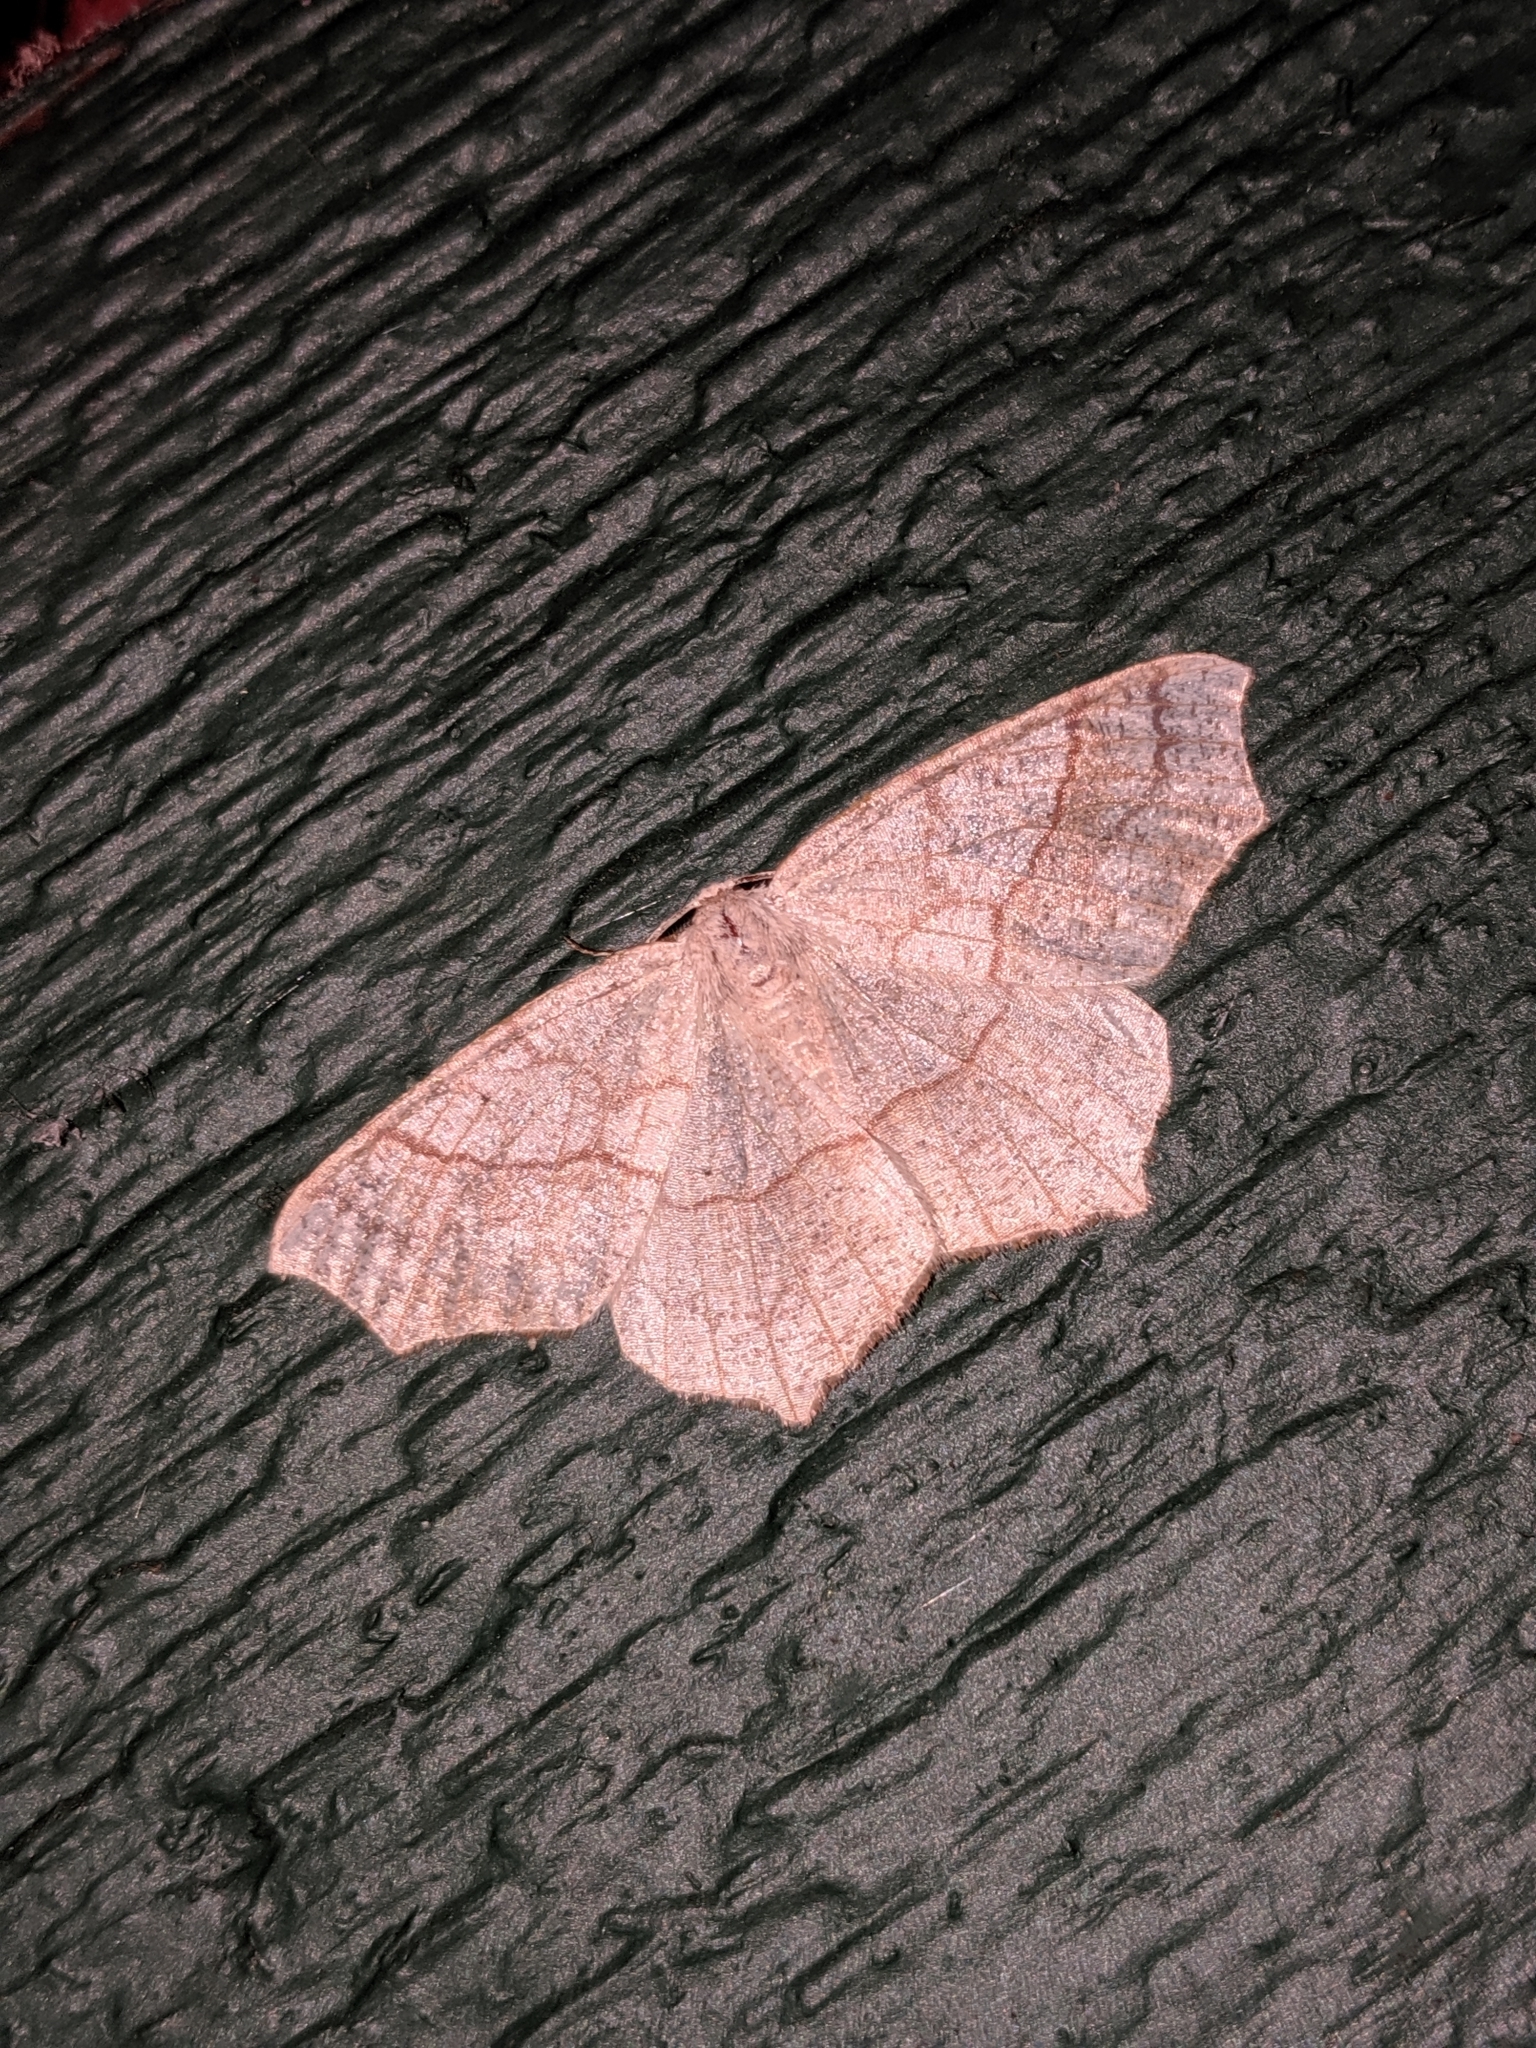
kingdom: Animalia
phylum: Arthropoda
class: Insecta
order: Lepidoptera
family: Geometridae
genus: Besma
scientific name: Besma quercivoraria
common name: Oak besma
